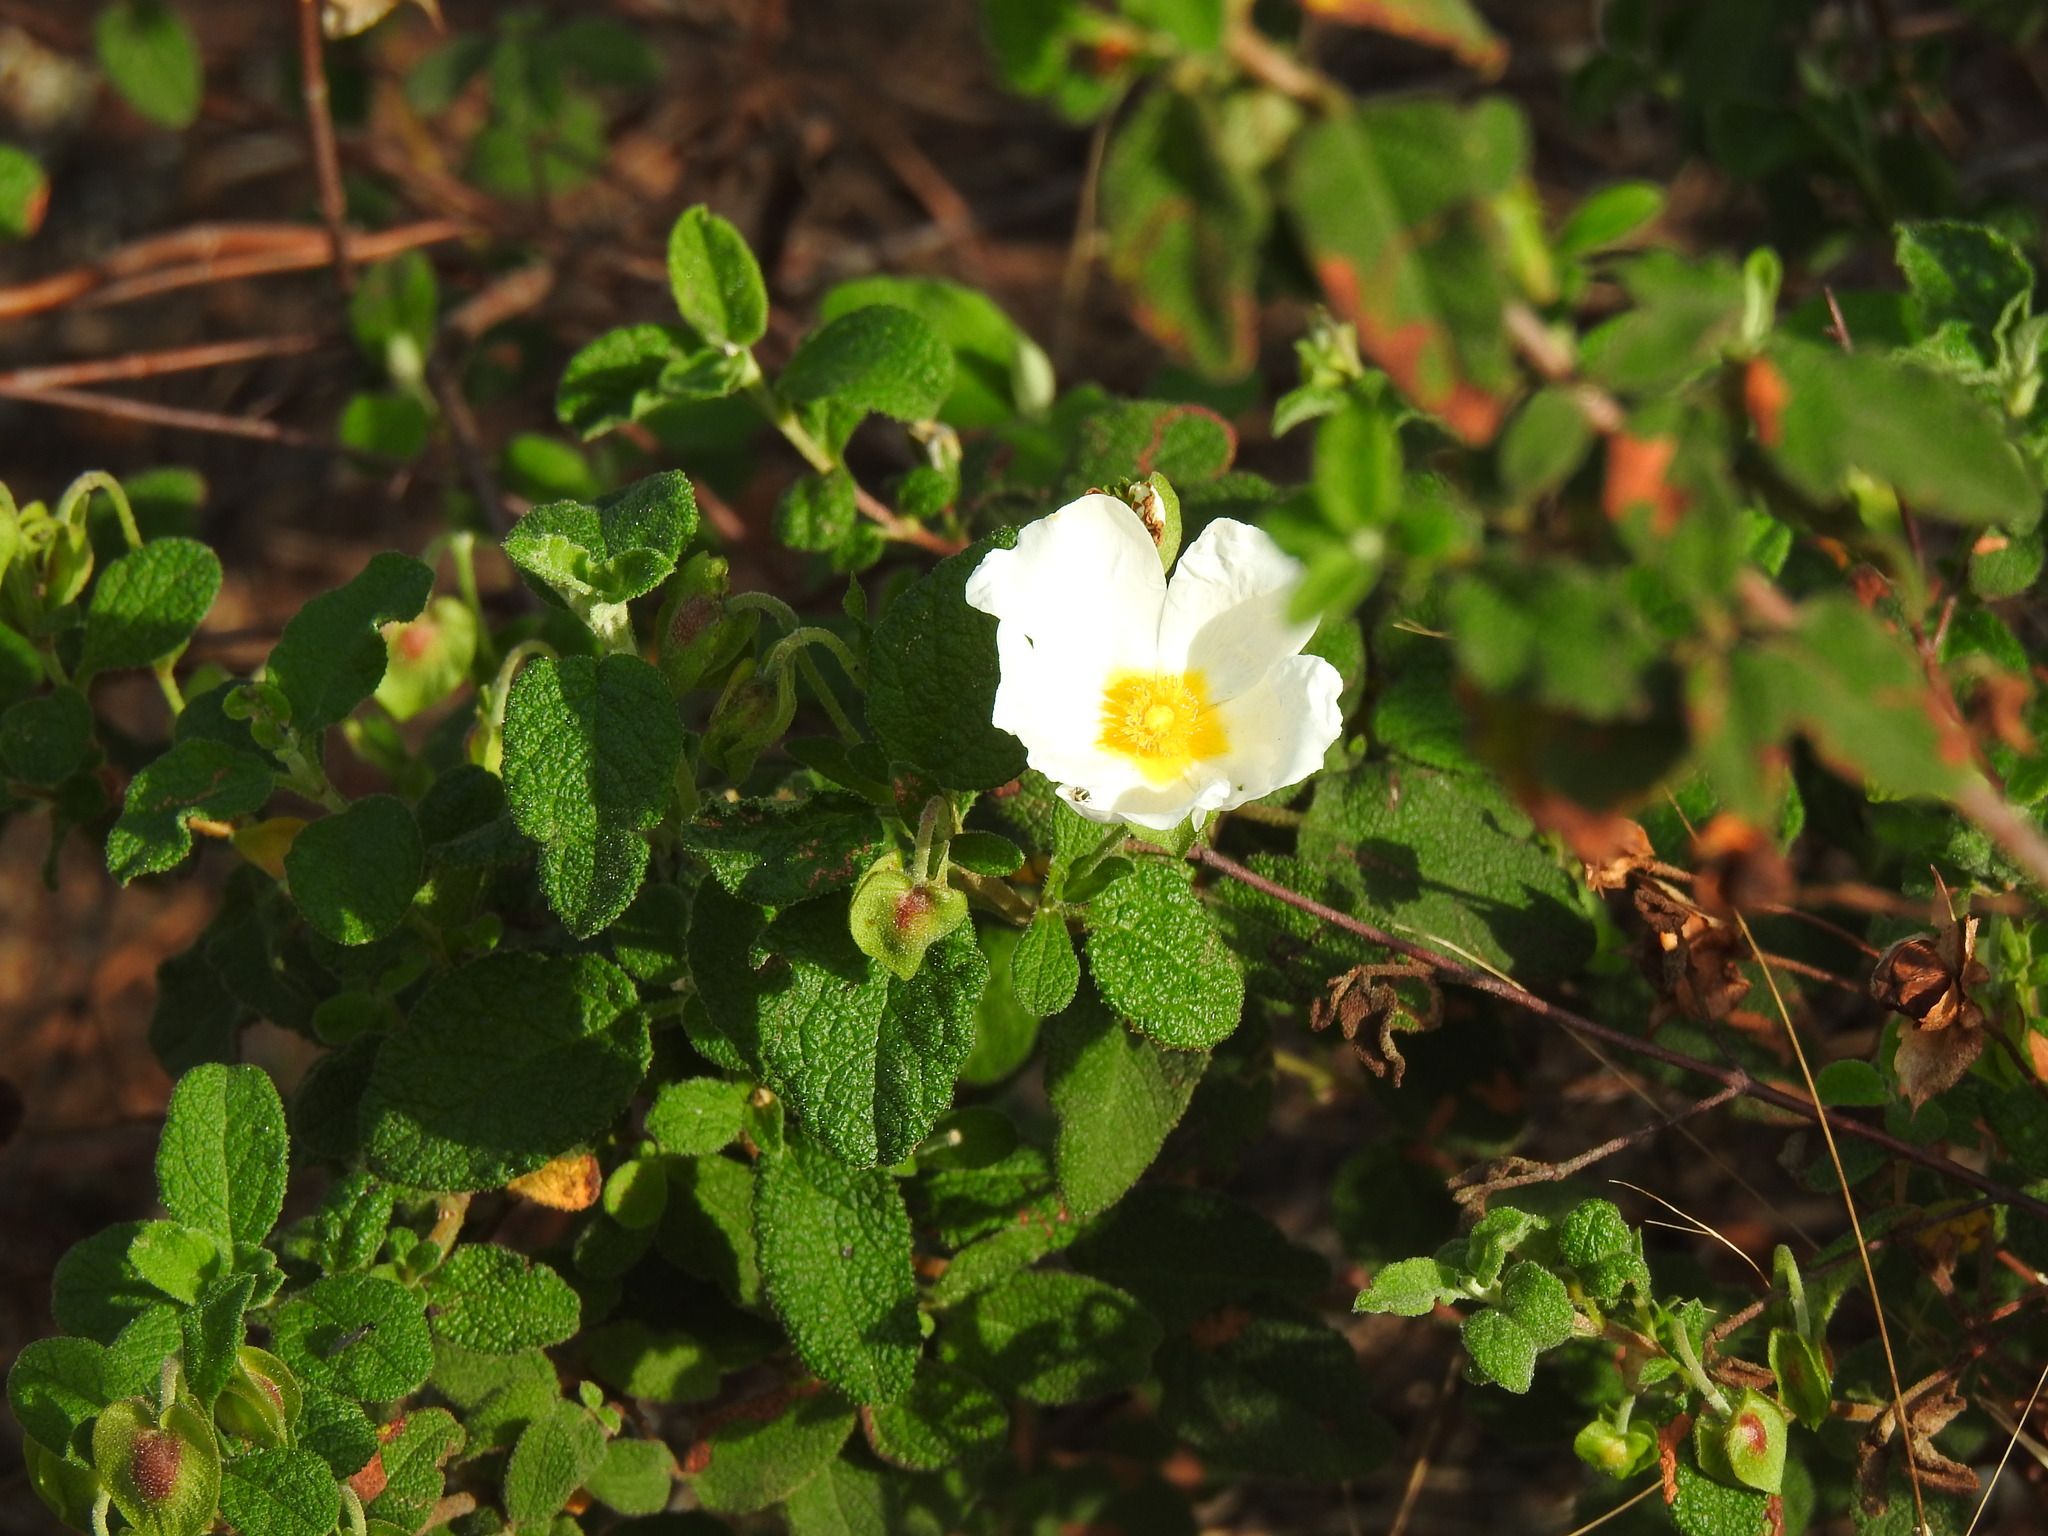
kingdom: Plantae
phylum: Tracheophyta
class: Magnoliopsida
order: Malvales
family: Cistaceae
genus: Cistus
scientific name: Cistus salviifolius
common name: Salvia cistus
